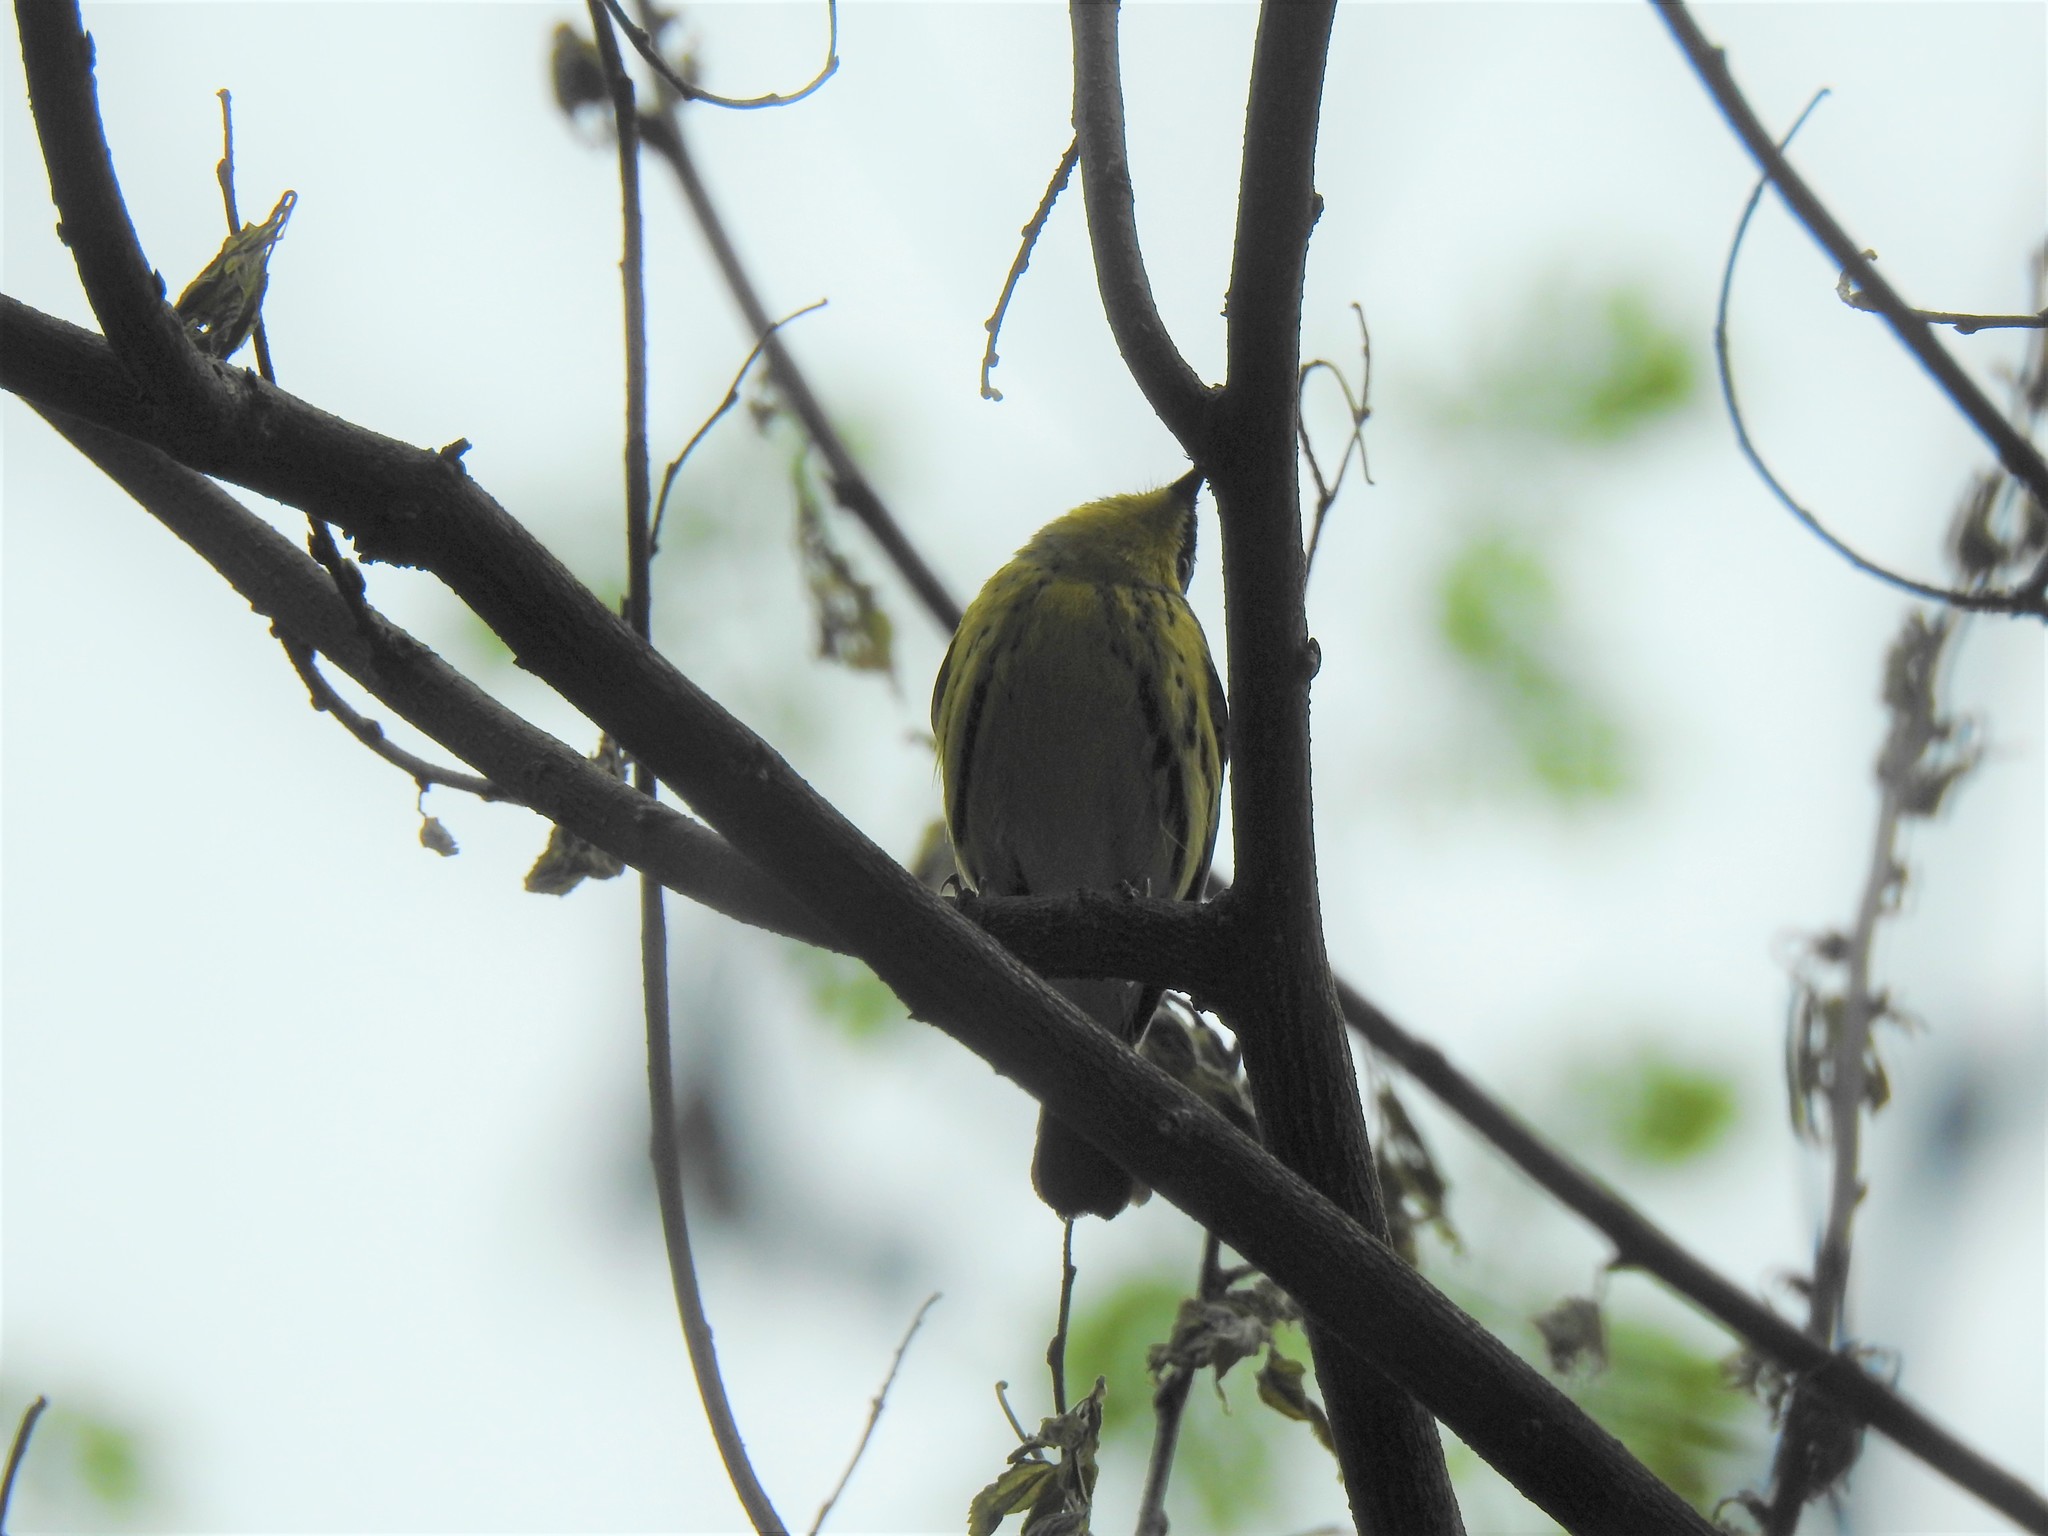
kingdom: Animalia
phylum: Chordata
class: Aves
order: Passeriformes
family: Parulidae
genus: Setophaga
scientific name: Setophaga magnolia
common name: Magnolia warbler
